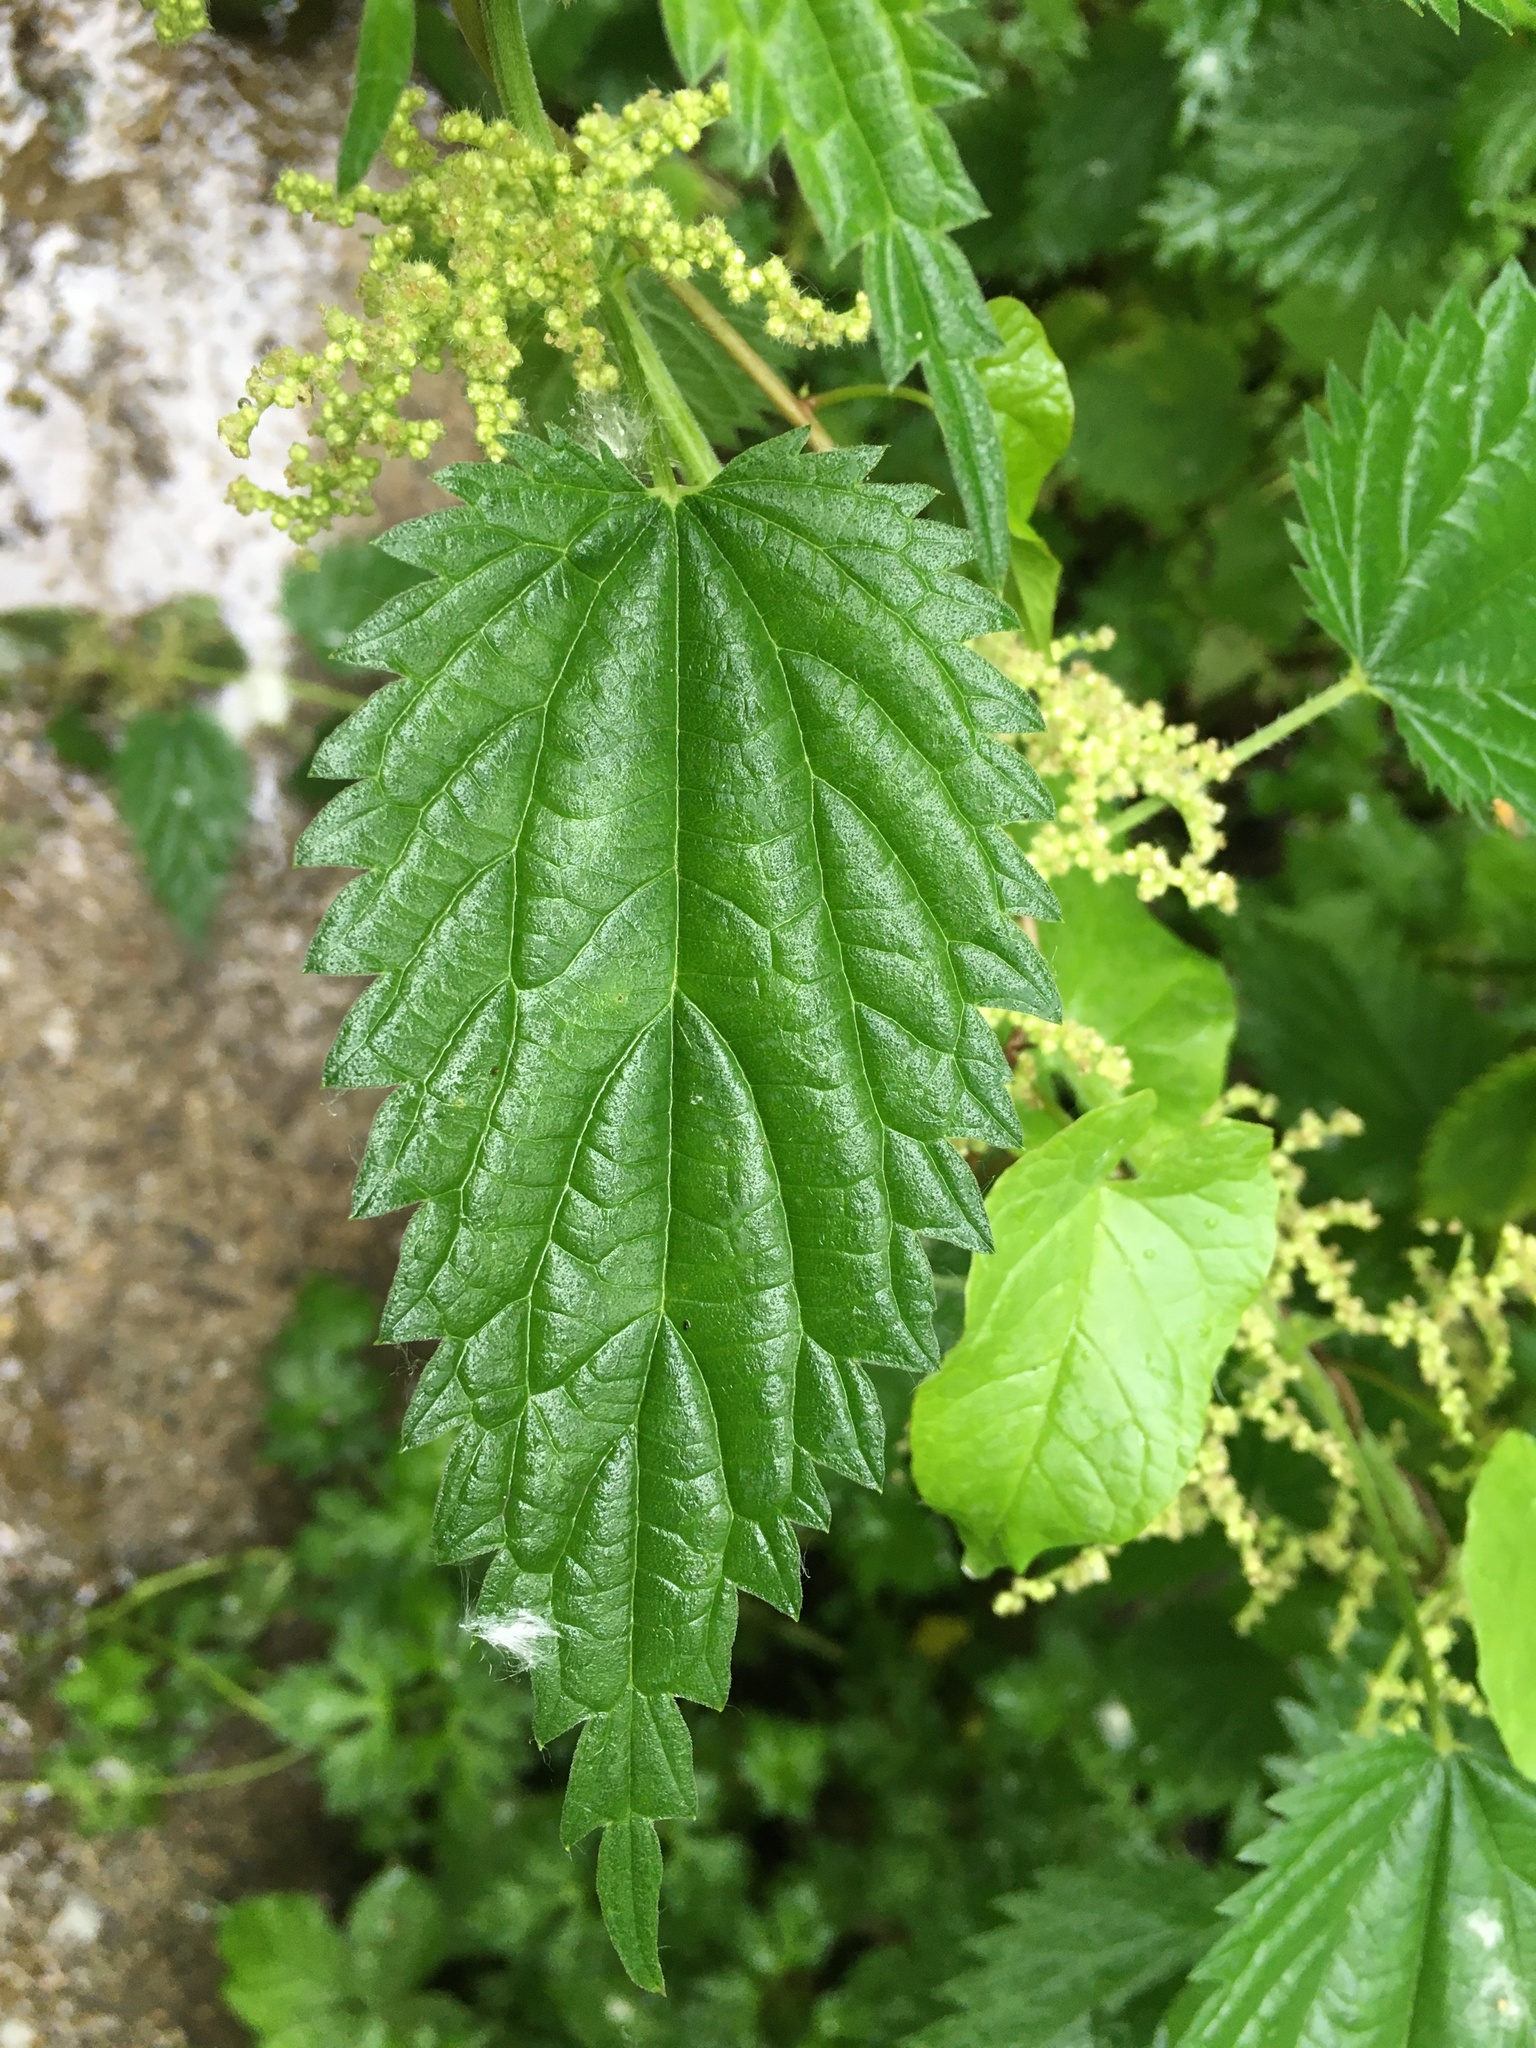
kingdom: Plantae
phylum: Tracheophyta
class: Magnoliopsida
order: Rosales
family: Urticaceae
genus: Urtica
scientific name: Urtica dioica
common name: Common nettle
